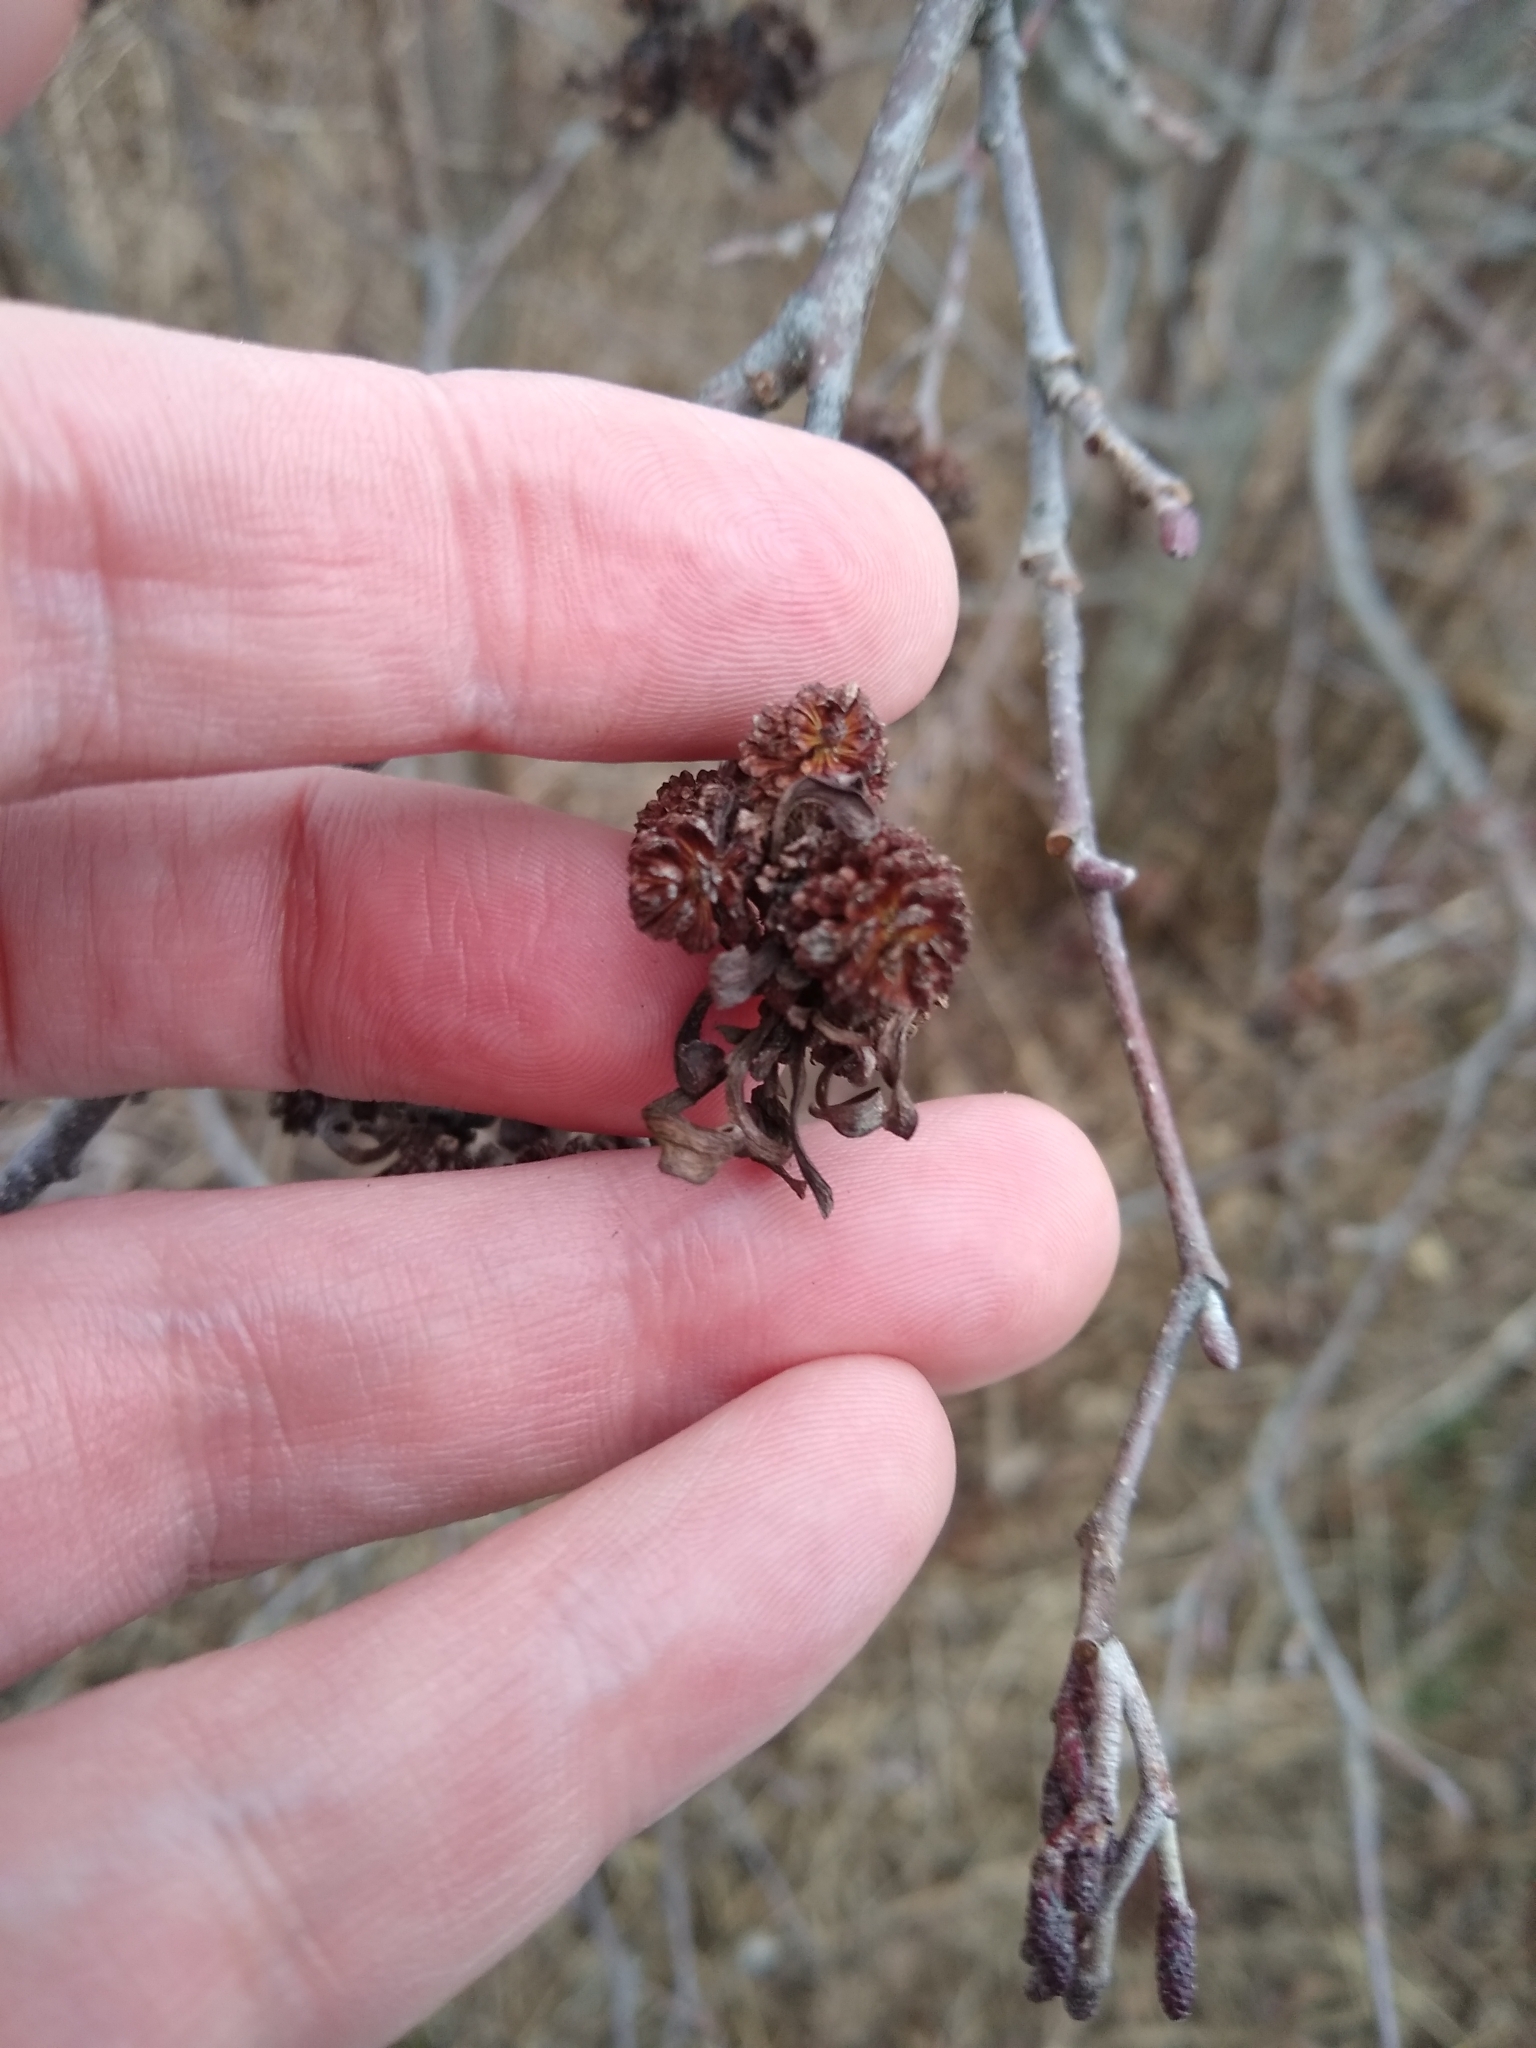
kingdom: Fungi
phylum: Ascomycota
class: Taphrinomycetes
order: Taphrinales
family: Taphrinaceae
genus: Taphrina
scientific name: Taphrina robinsoniana
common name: Eastern american alder tongue gall fungus
